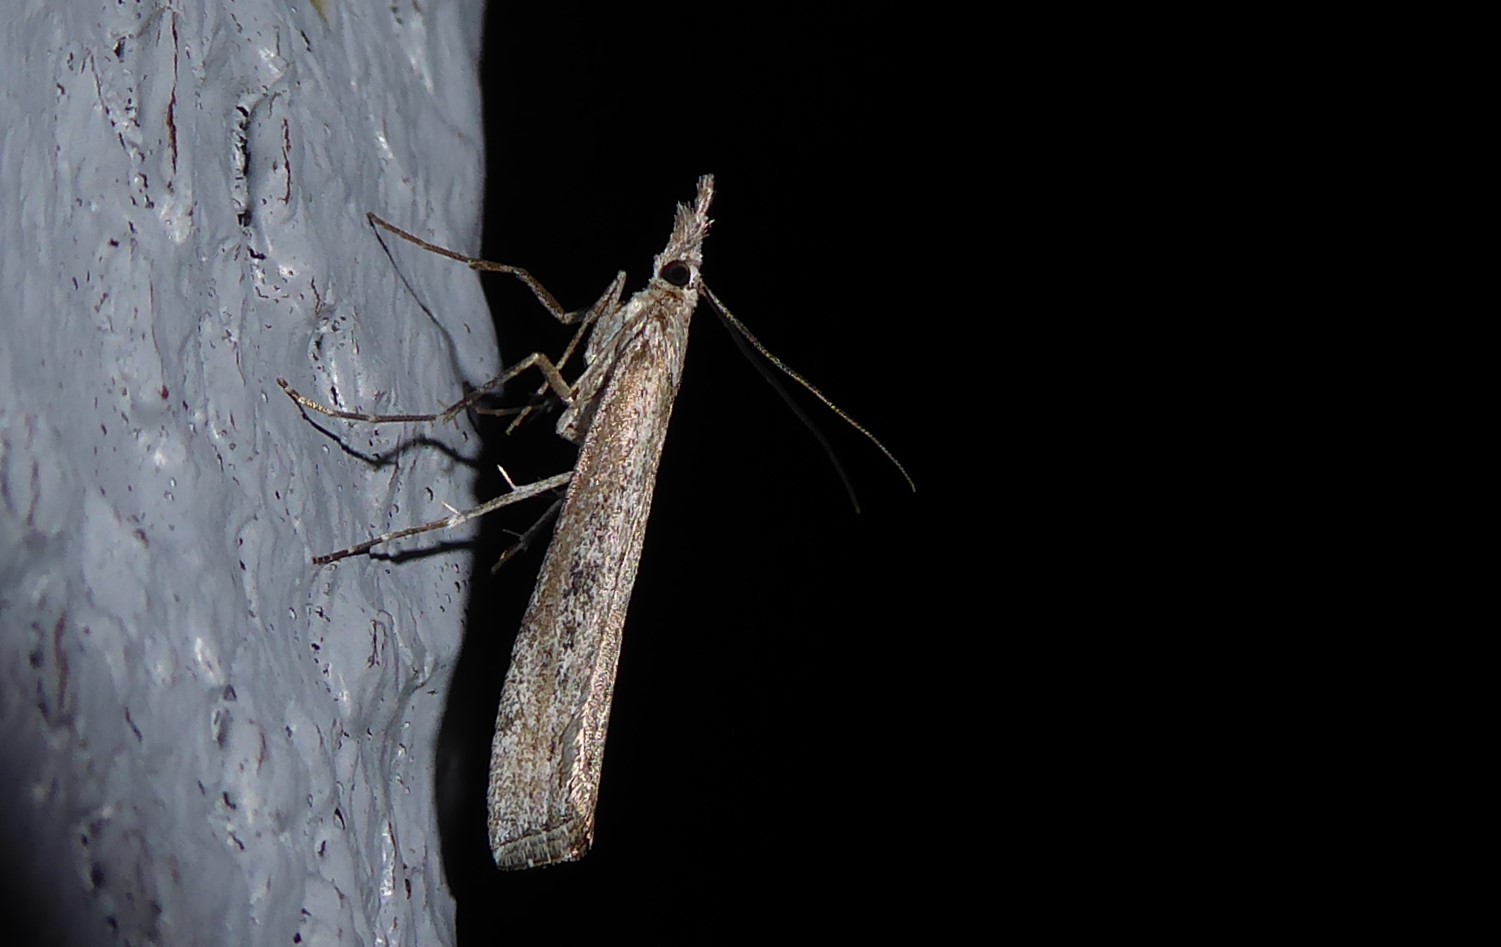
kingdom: Animalia
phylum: Arthropoda
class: Insecta
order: Lepidoptera
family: Crambidae
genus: Orocrambus
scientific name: Orocrambus cyclopicus
